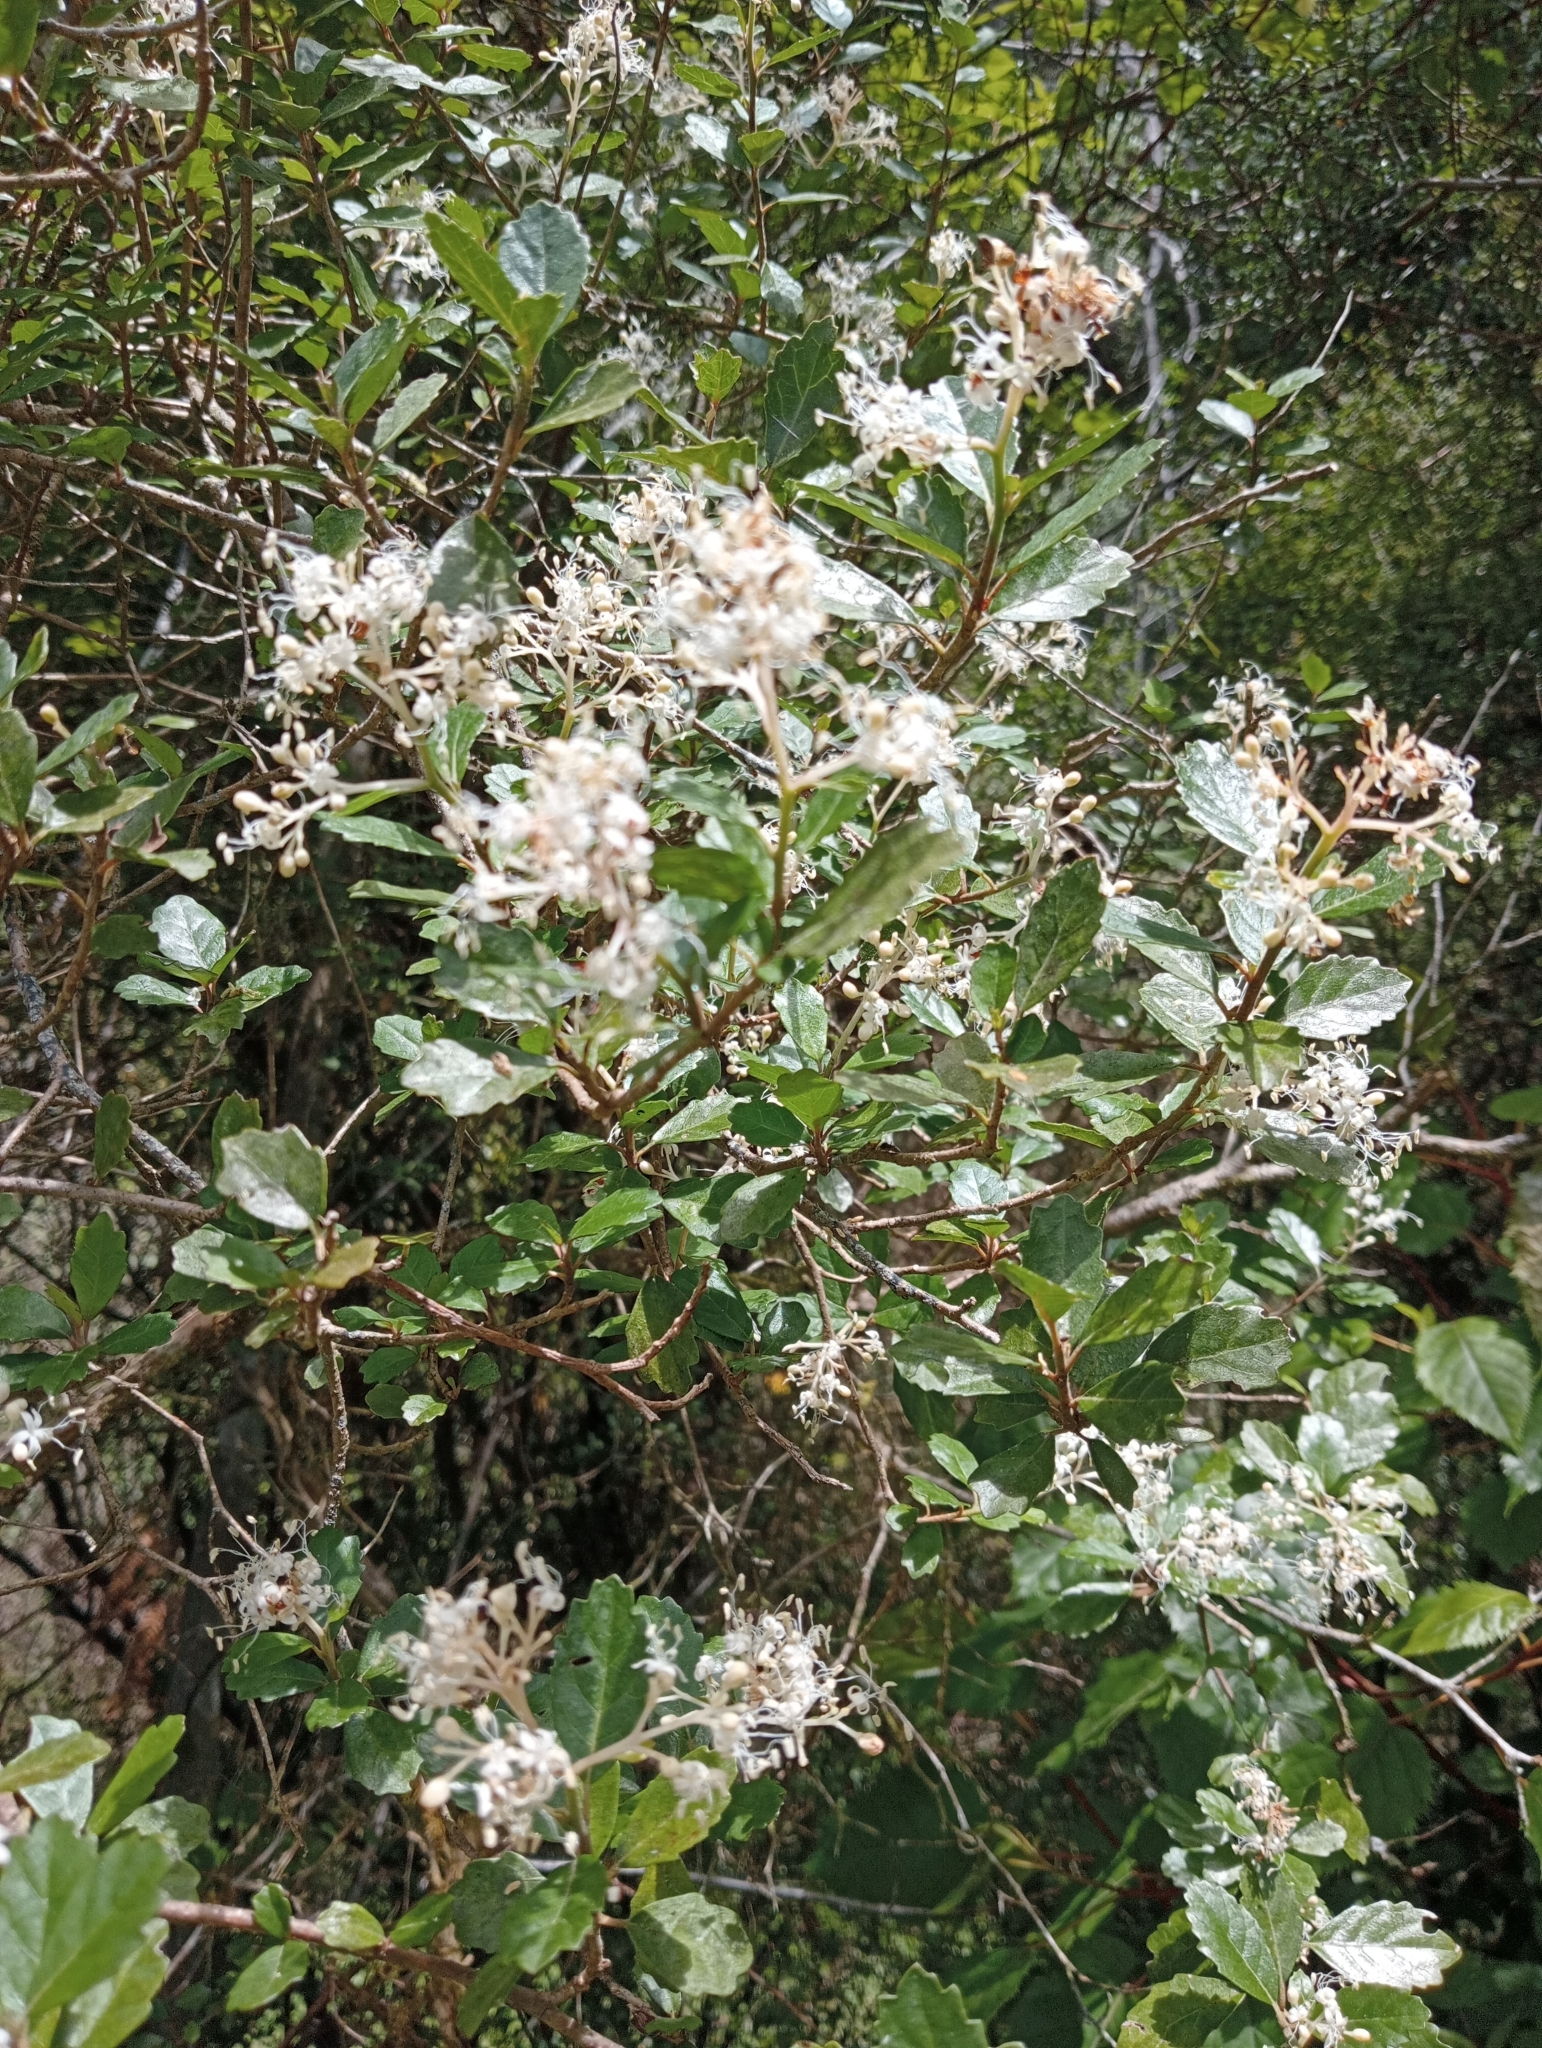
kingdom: Plantae
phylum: Tracheophyta
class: Magnoliopsida
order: Apiales
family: Pennantiaceae
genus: Pennantia
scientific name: Pennantia corymbosa
